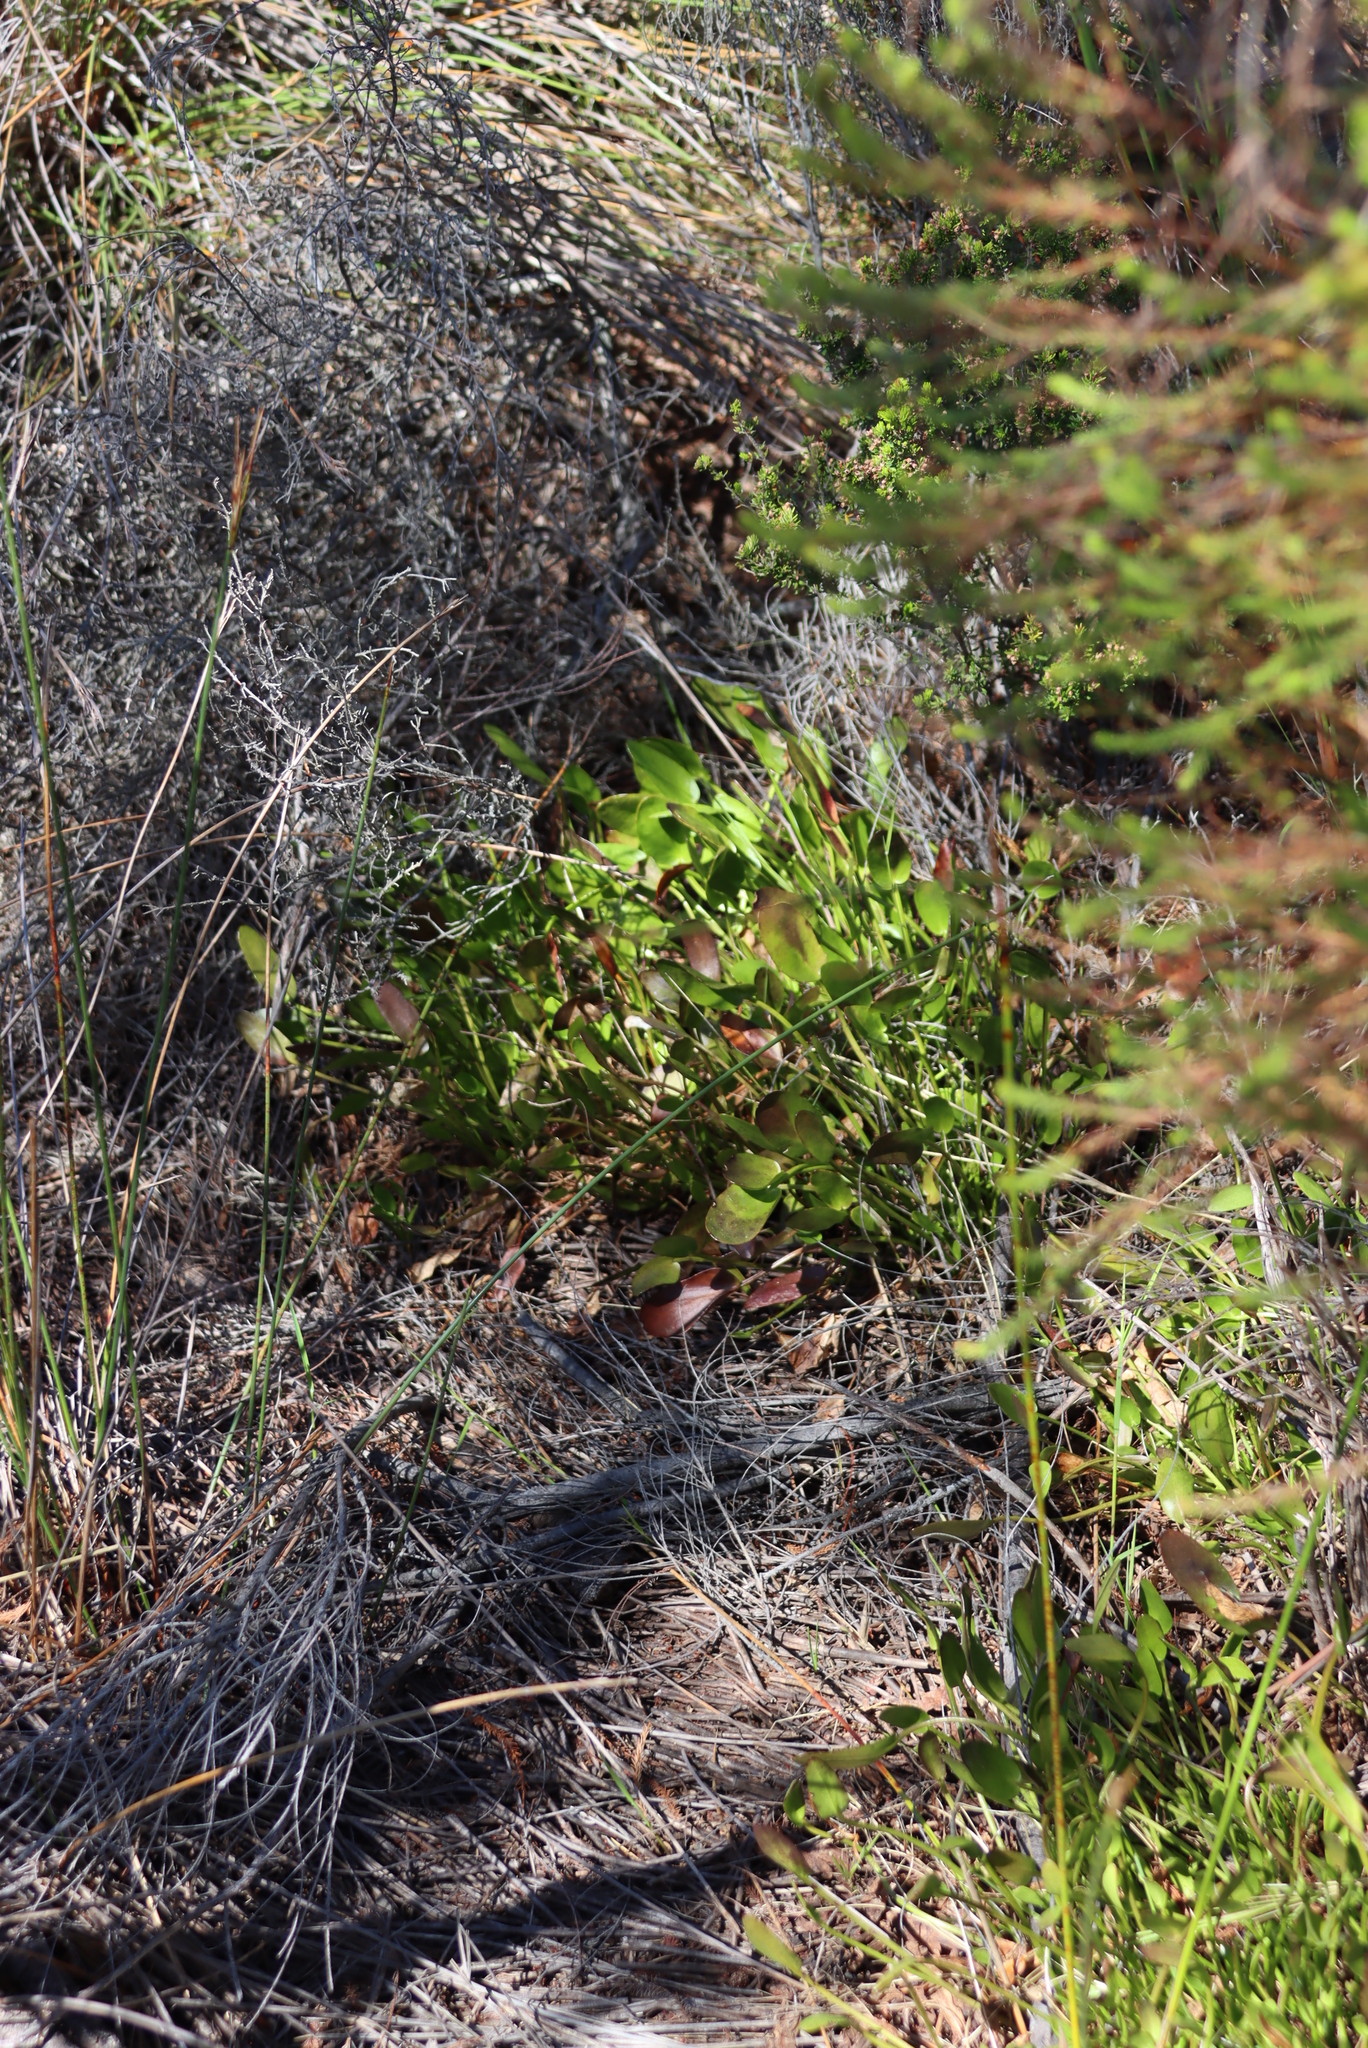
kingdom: Plantae
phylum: Tracheophyta
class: Magnoliopsida
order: Asterales
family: Menyanthaceae
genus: Villarsia
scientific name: Villarsia manningiana
